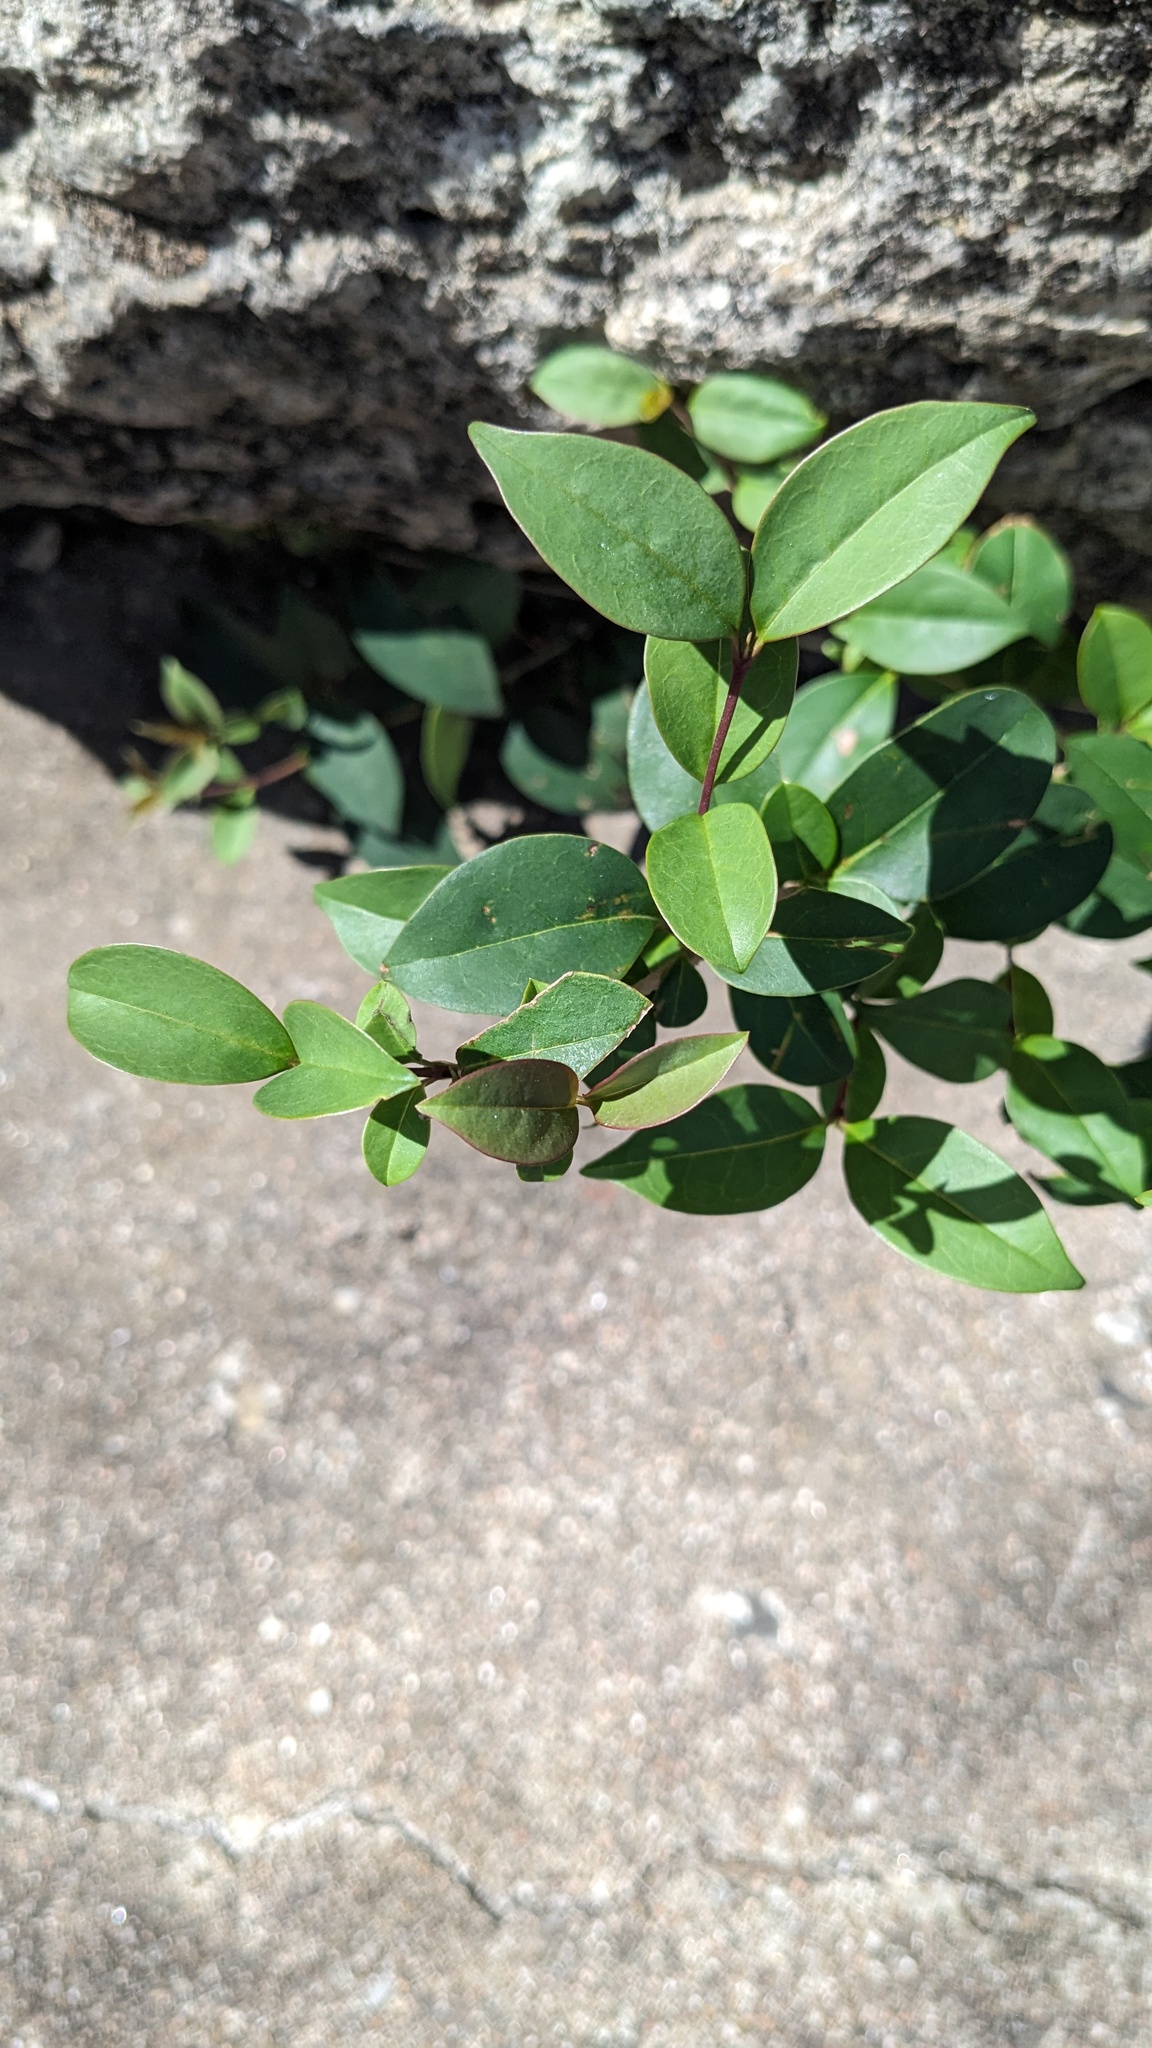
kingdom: Plantae
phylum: Tracheophyta
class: Magnoliopsida
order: Lamiales
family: Oleaceae
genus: Ligustrum
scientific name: Ligustrum lucidum
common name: Glossy privet
